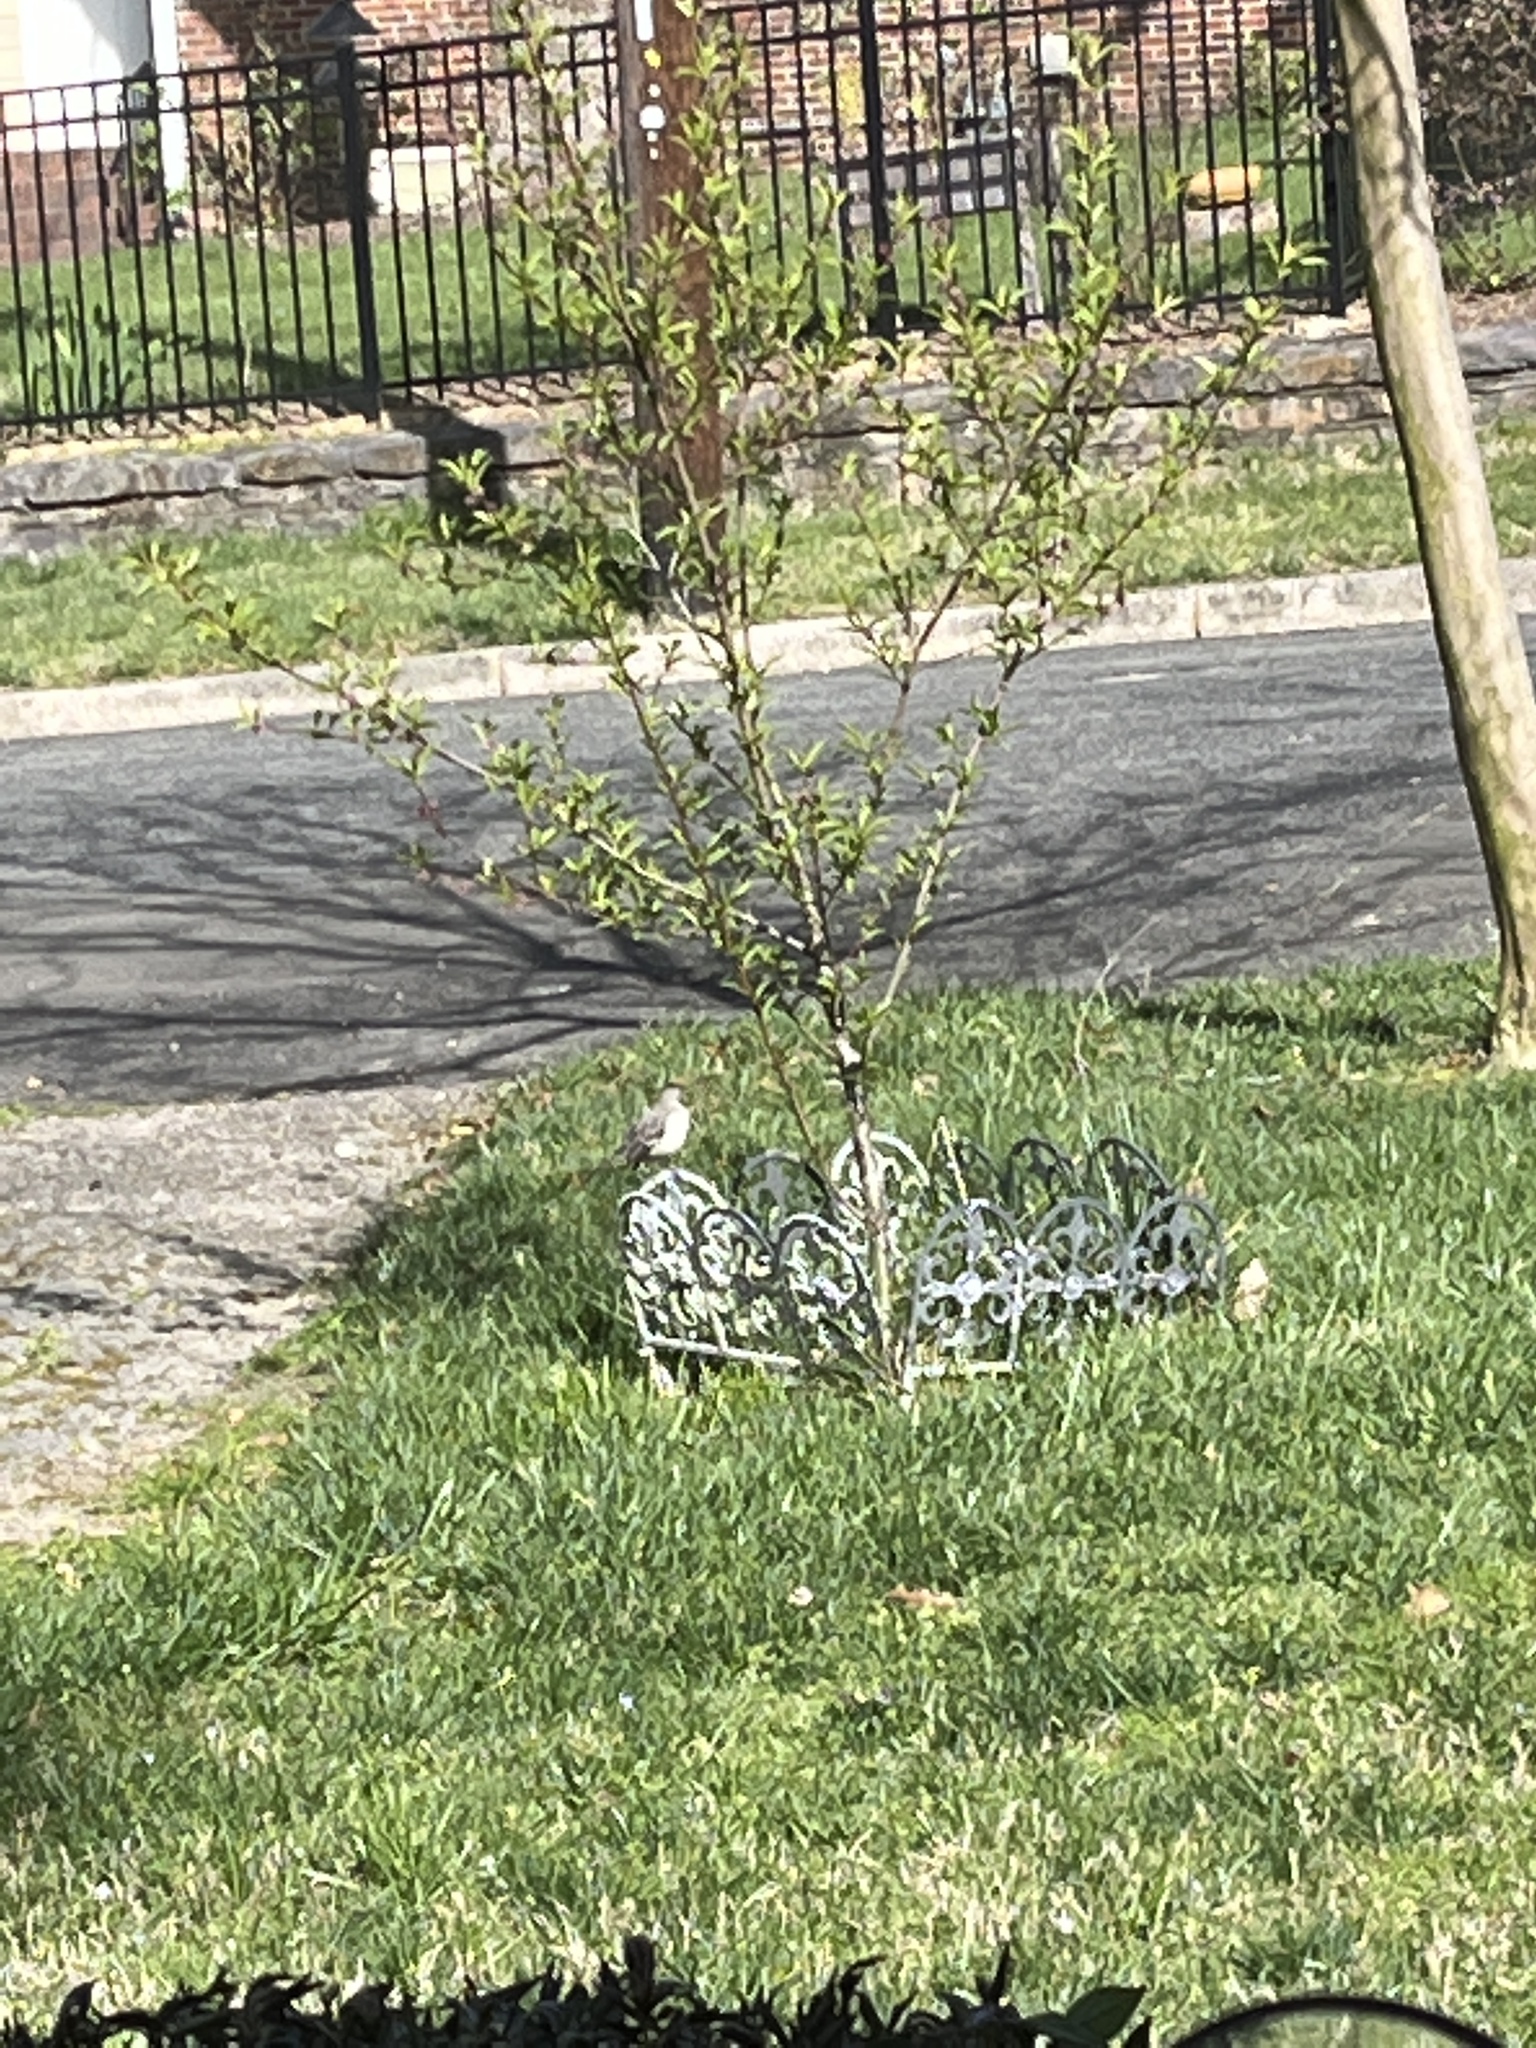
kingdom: Animalia
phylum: Chordata
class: Aves
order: Passeriformes
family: Mimidae
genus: Mimus
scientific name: Mimus polyglottos
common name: Northern mockingbird
